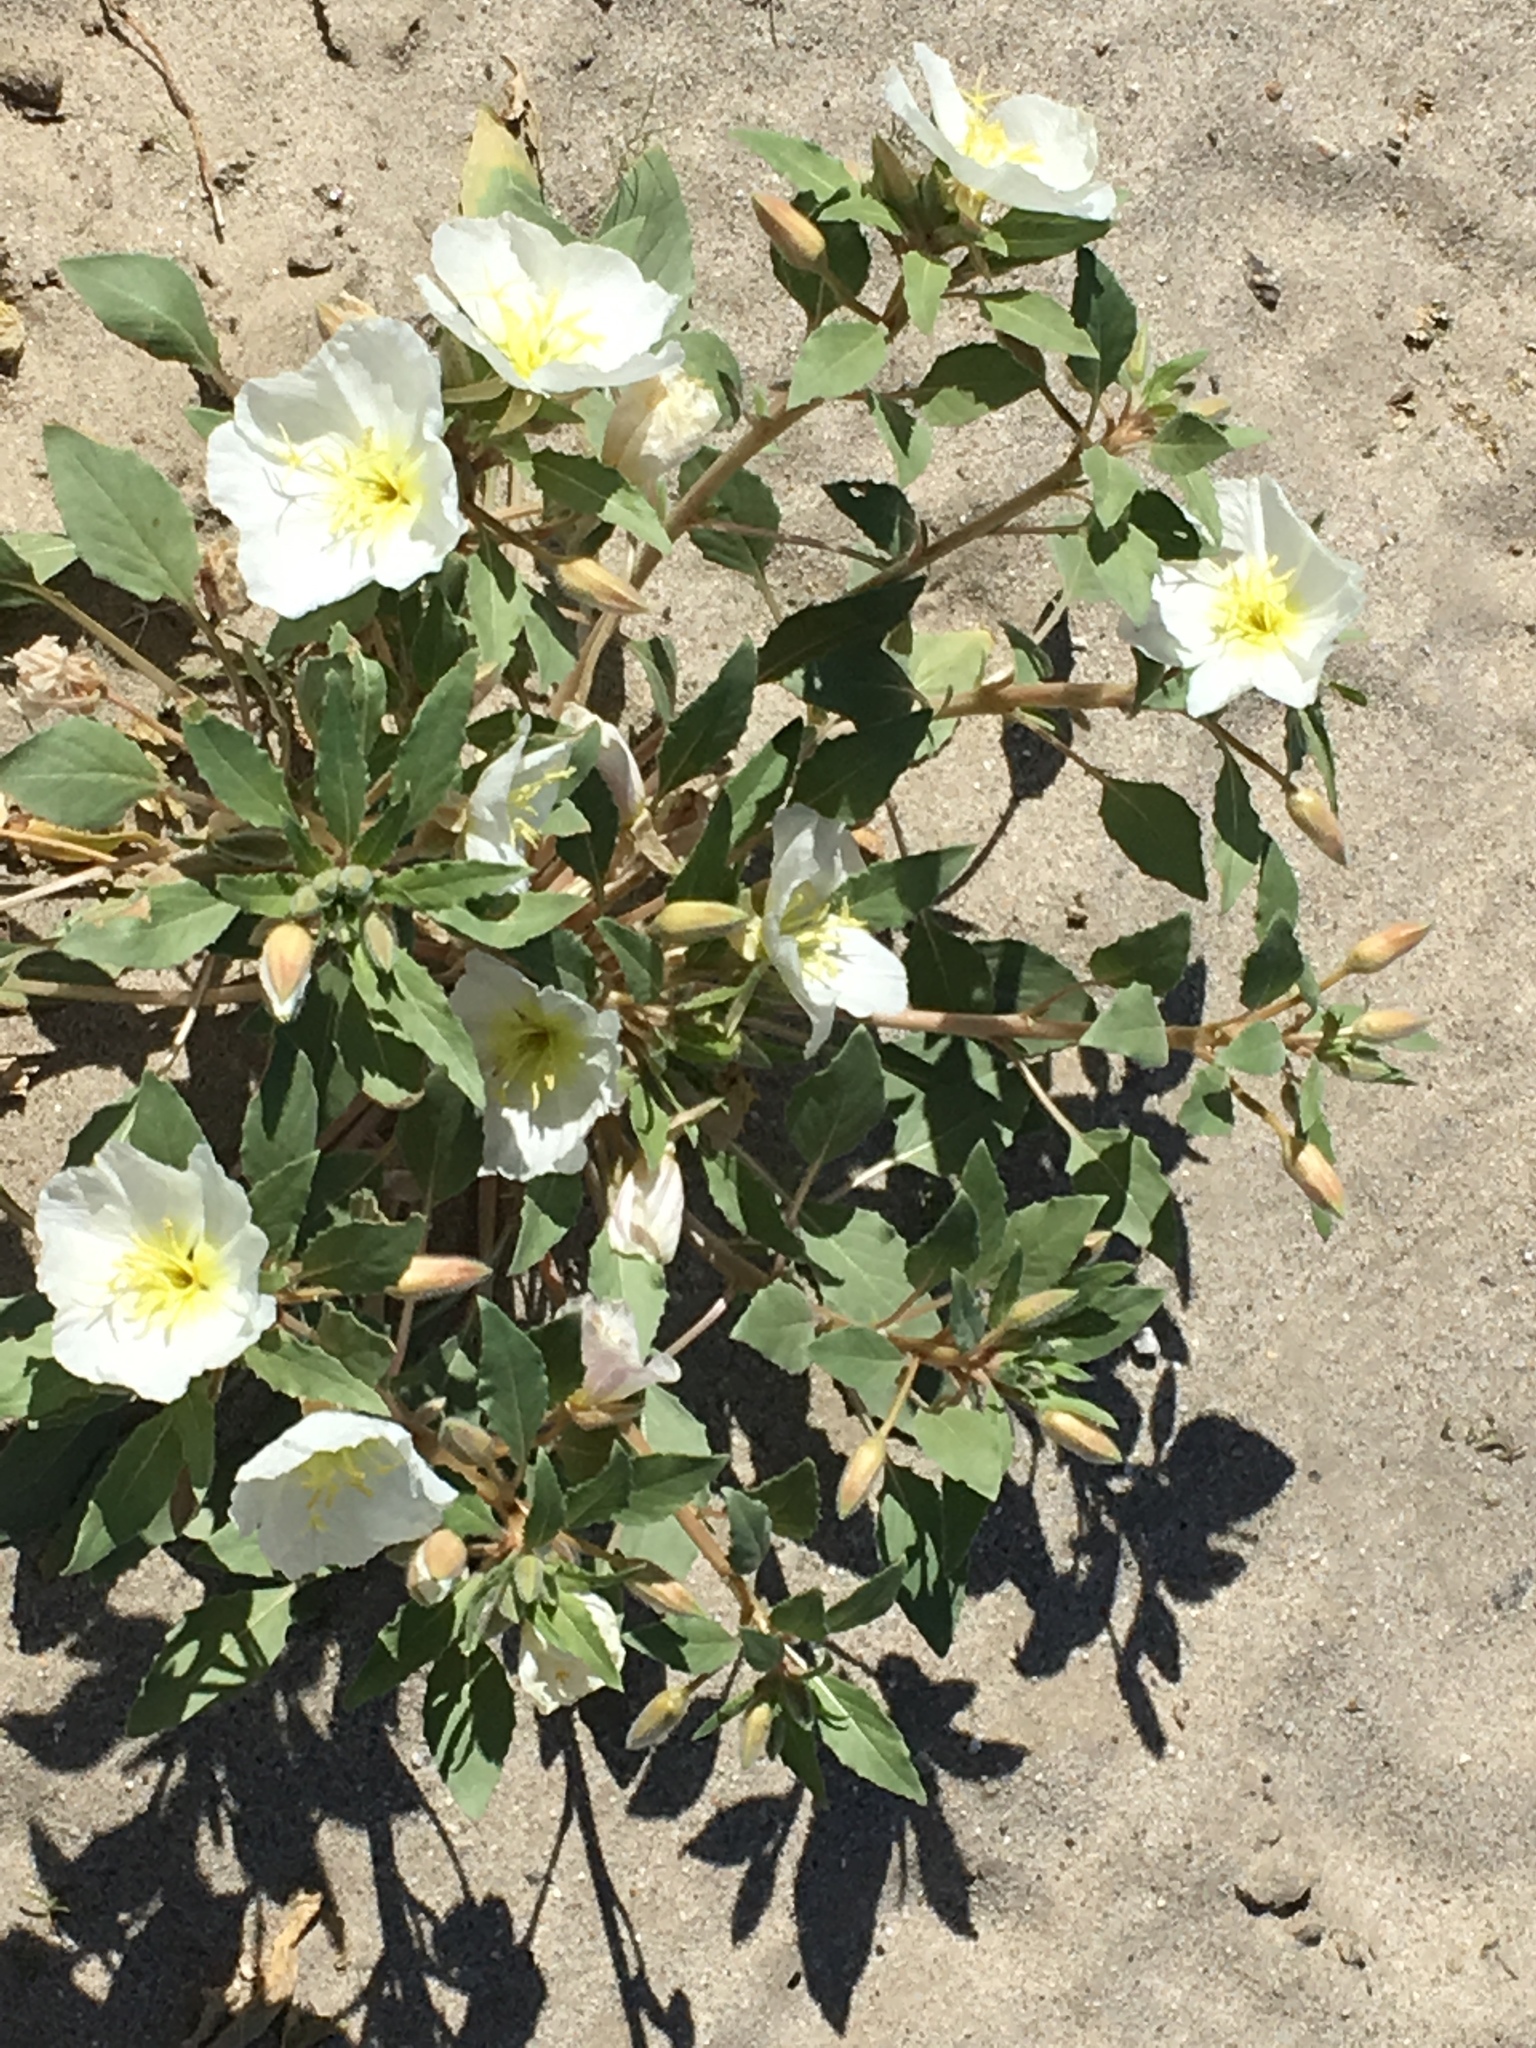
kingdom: Plantae
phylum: Tracheophyta
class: Magnoliopsida
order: Myrtales
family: Onagraceae
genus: Oenothera
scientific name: Oenothera deltoides
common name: Basket evening-primrose
